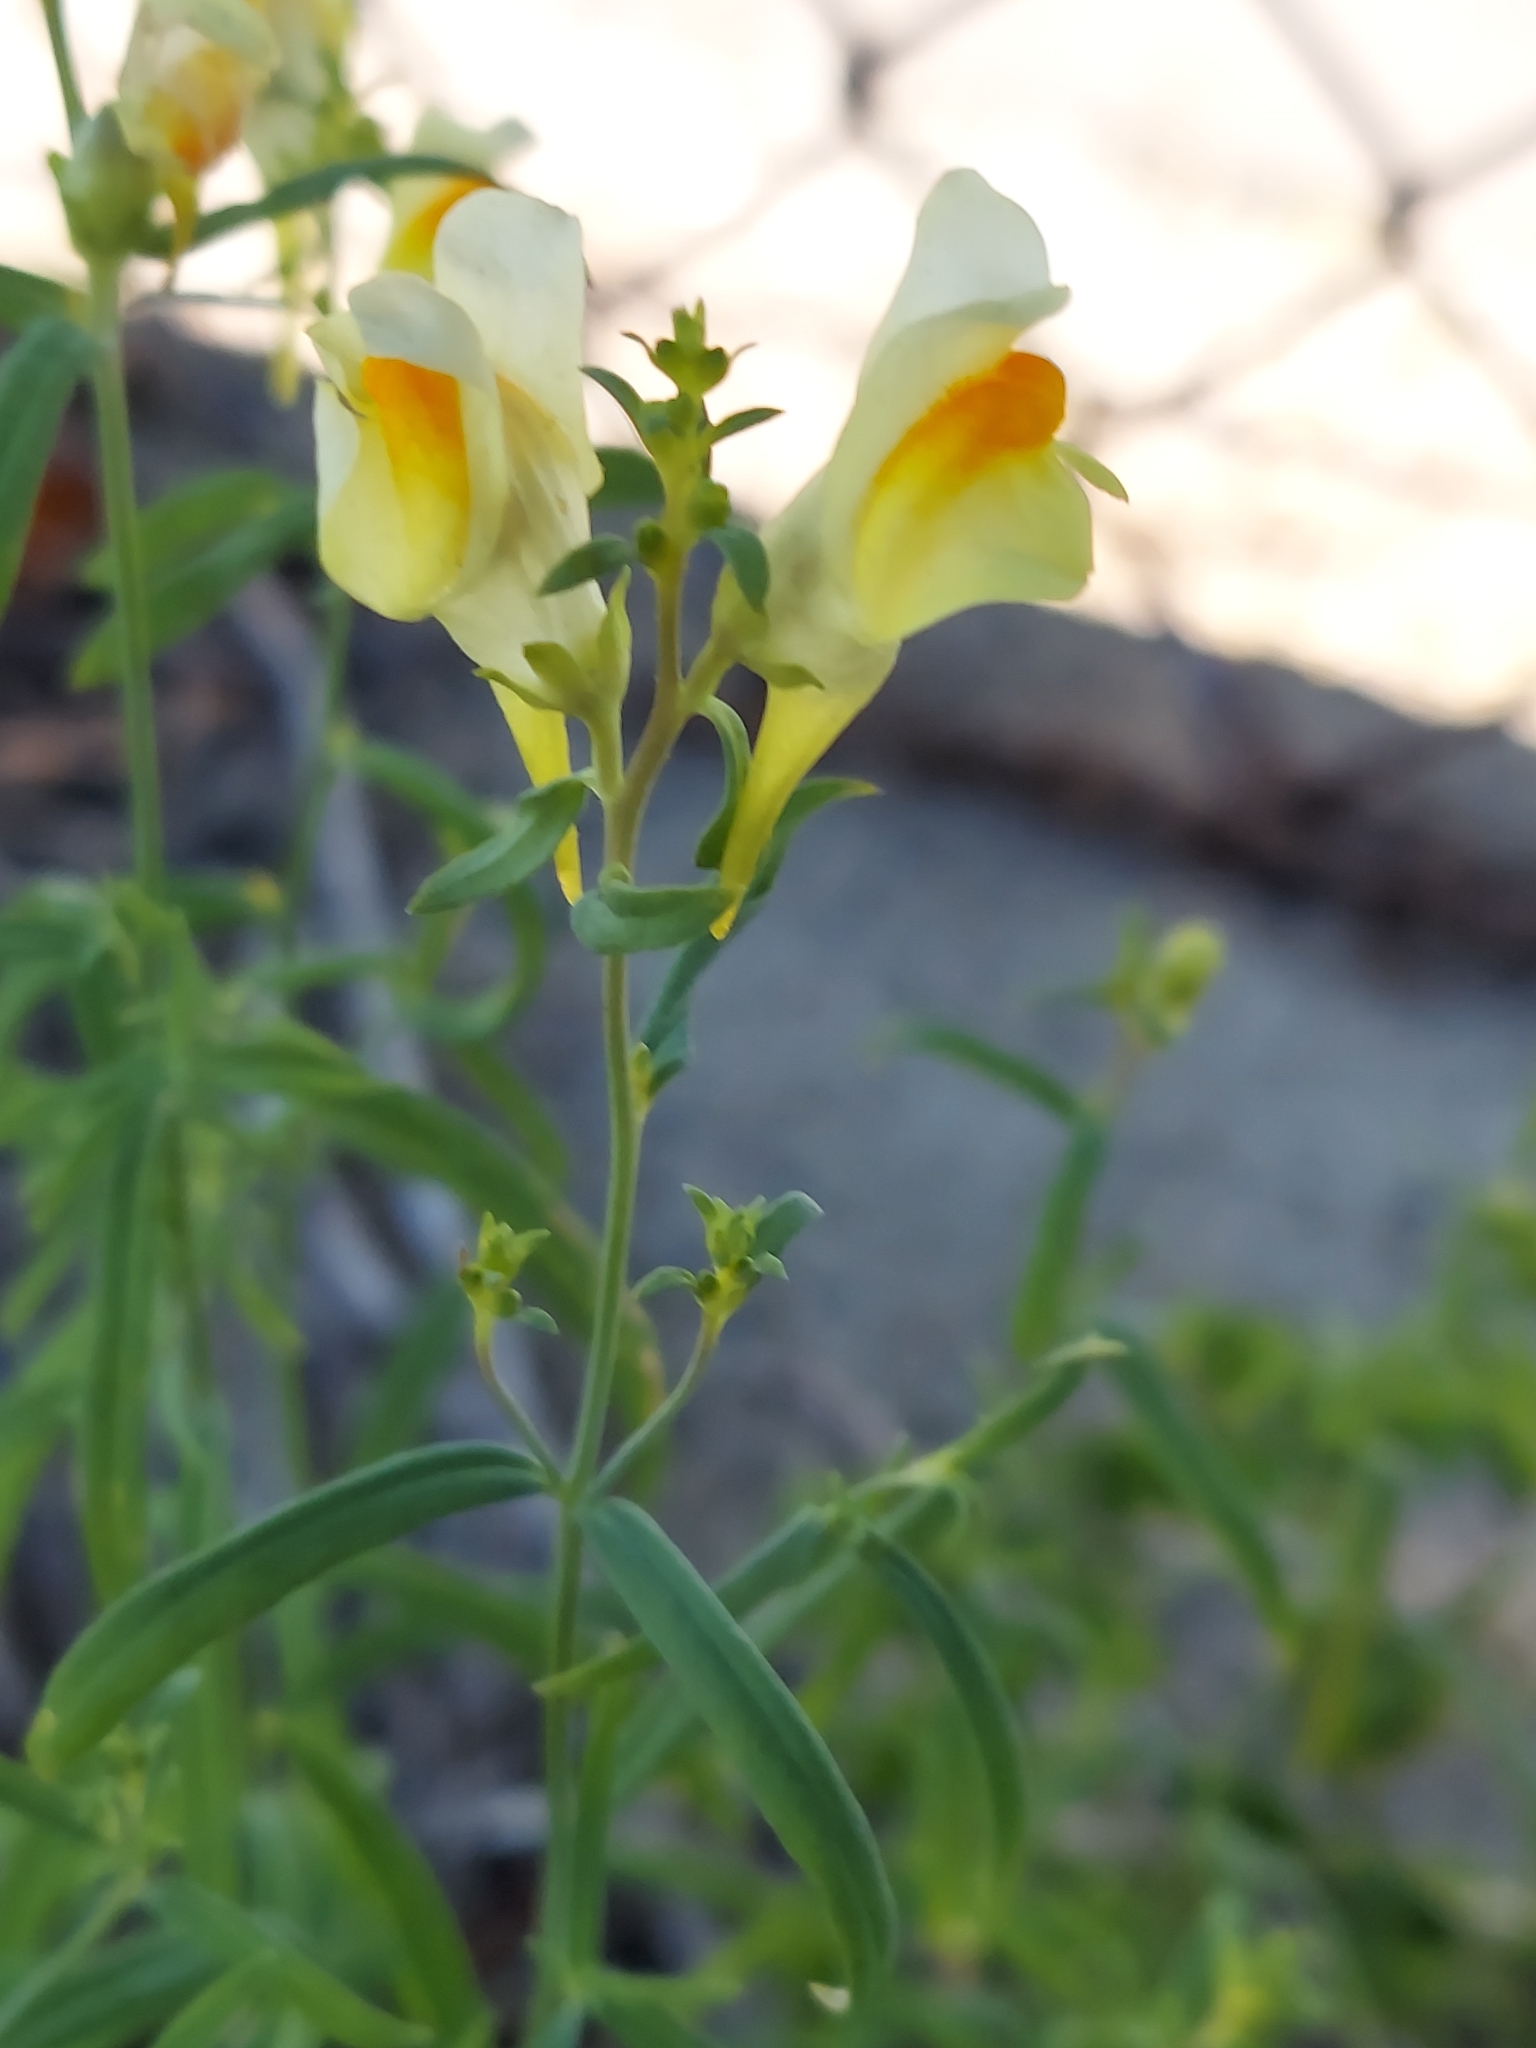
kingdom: Plantae
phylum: Tracheophyta
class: Magnoliopsida
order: Lamiales
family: Plantaginaceae
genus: Linaria
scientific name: Linaria vulgaris
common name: Butter and eggs
